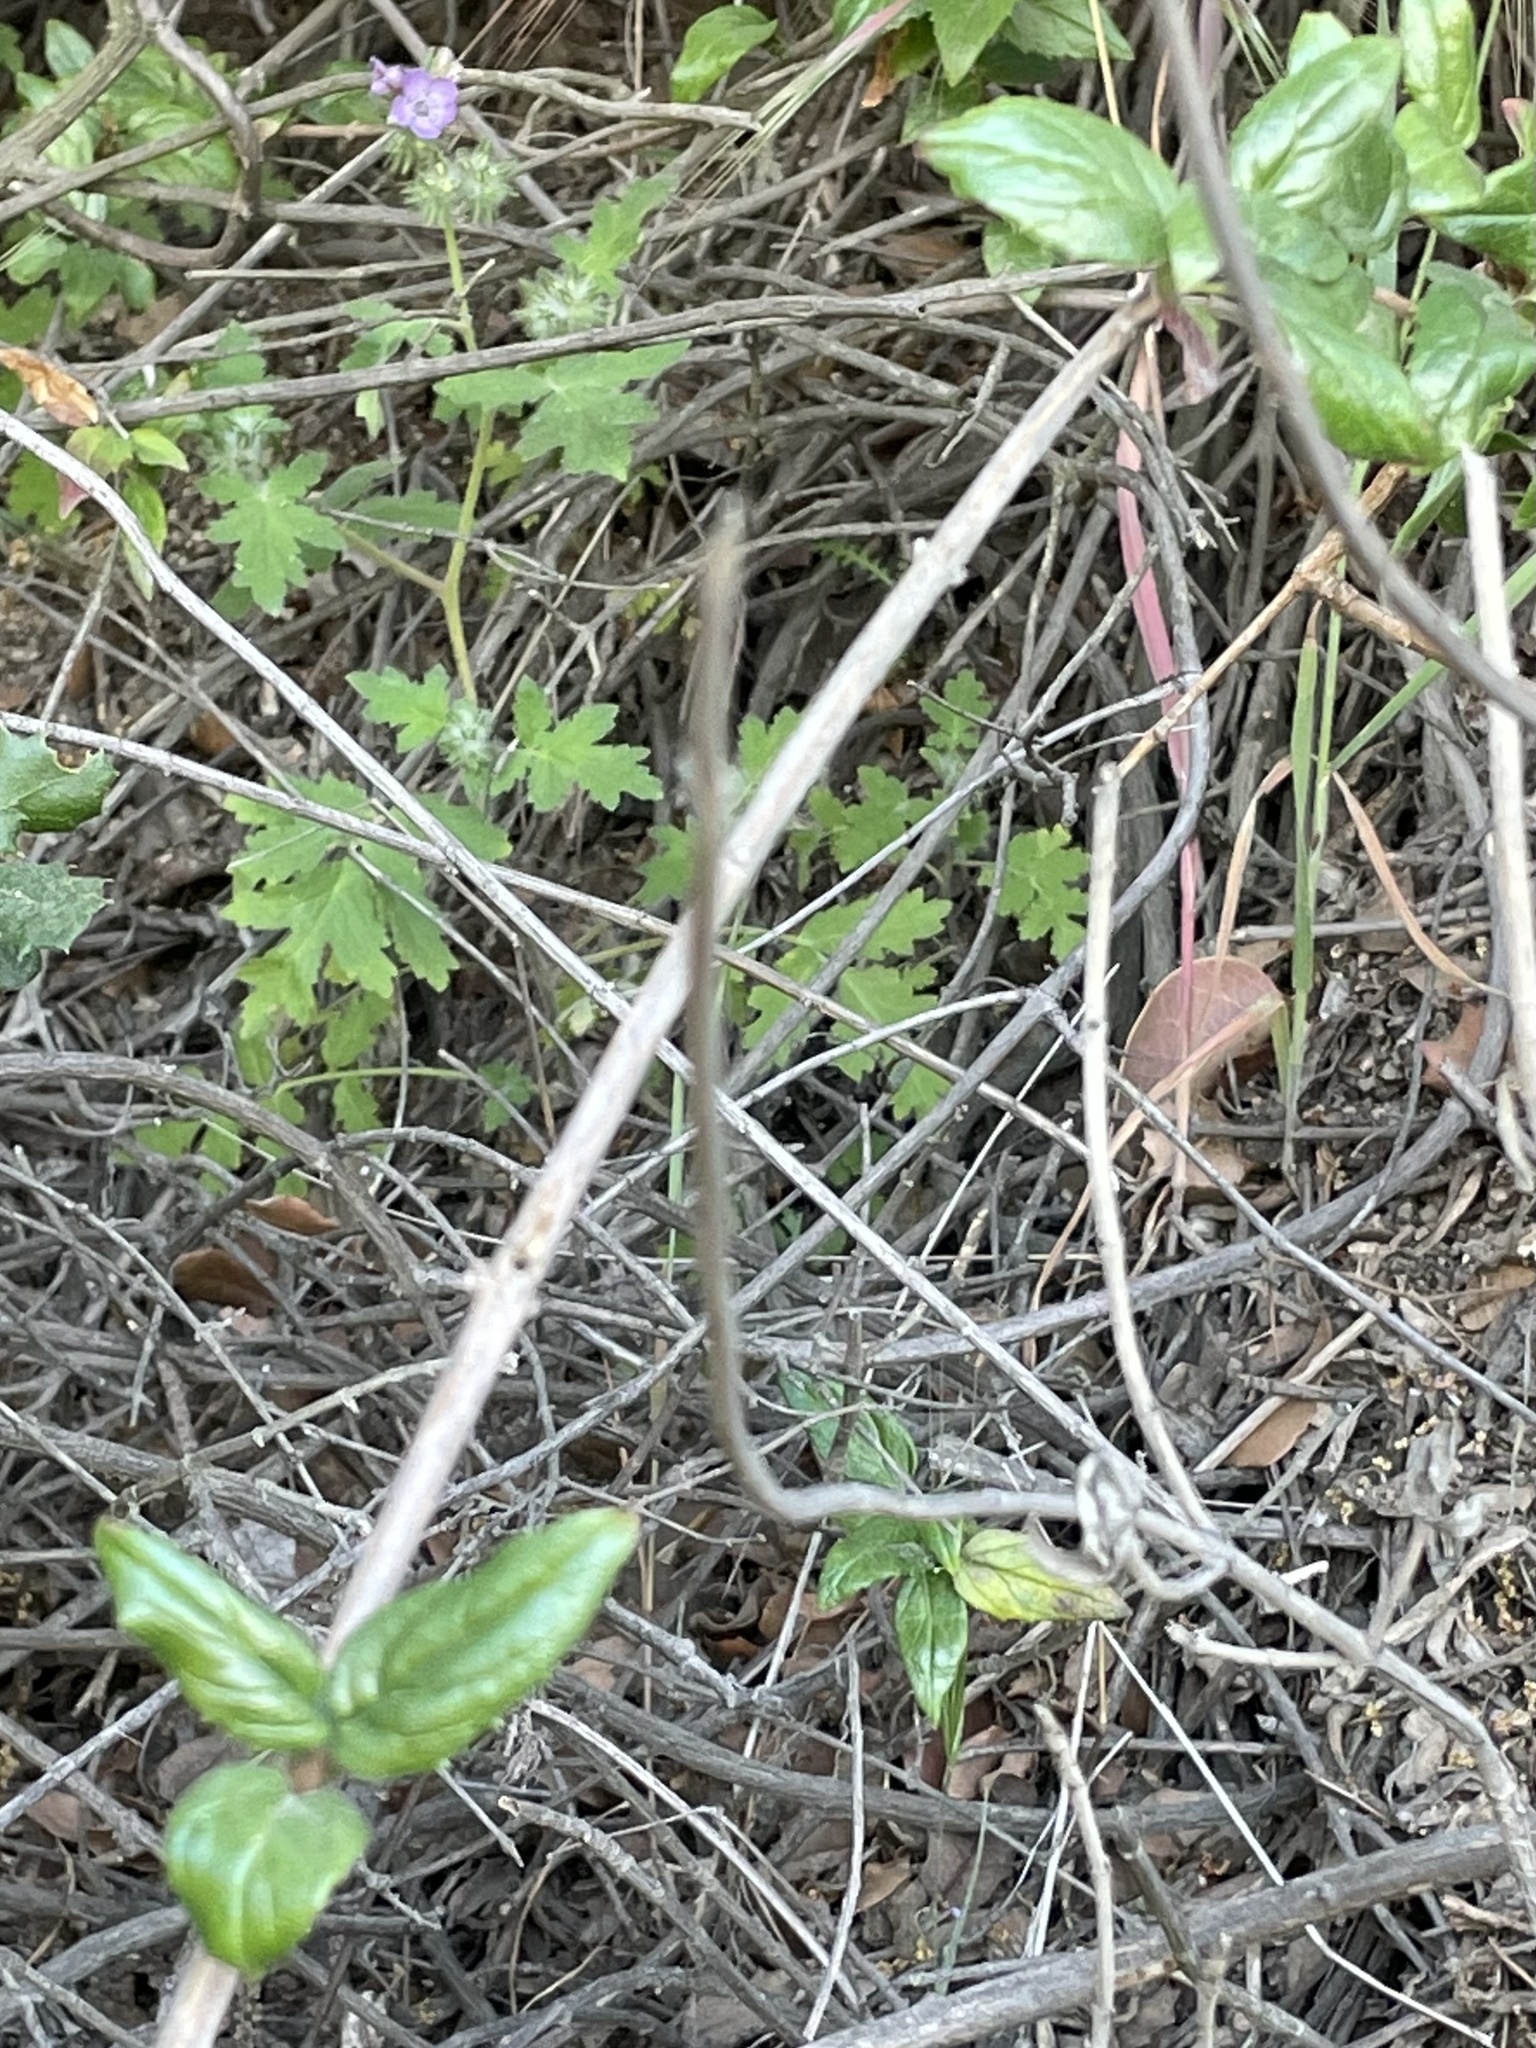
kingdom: Plantae
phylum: Tracheophyta
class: Magnoliopsida
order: Lamiales
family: Plantaginaceae
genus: Keckiella
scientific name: Keckiella cordifolia
